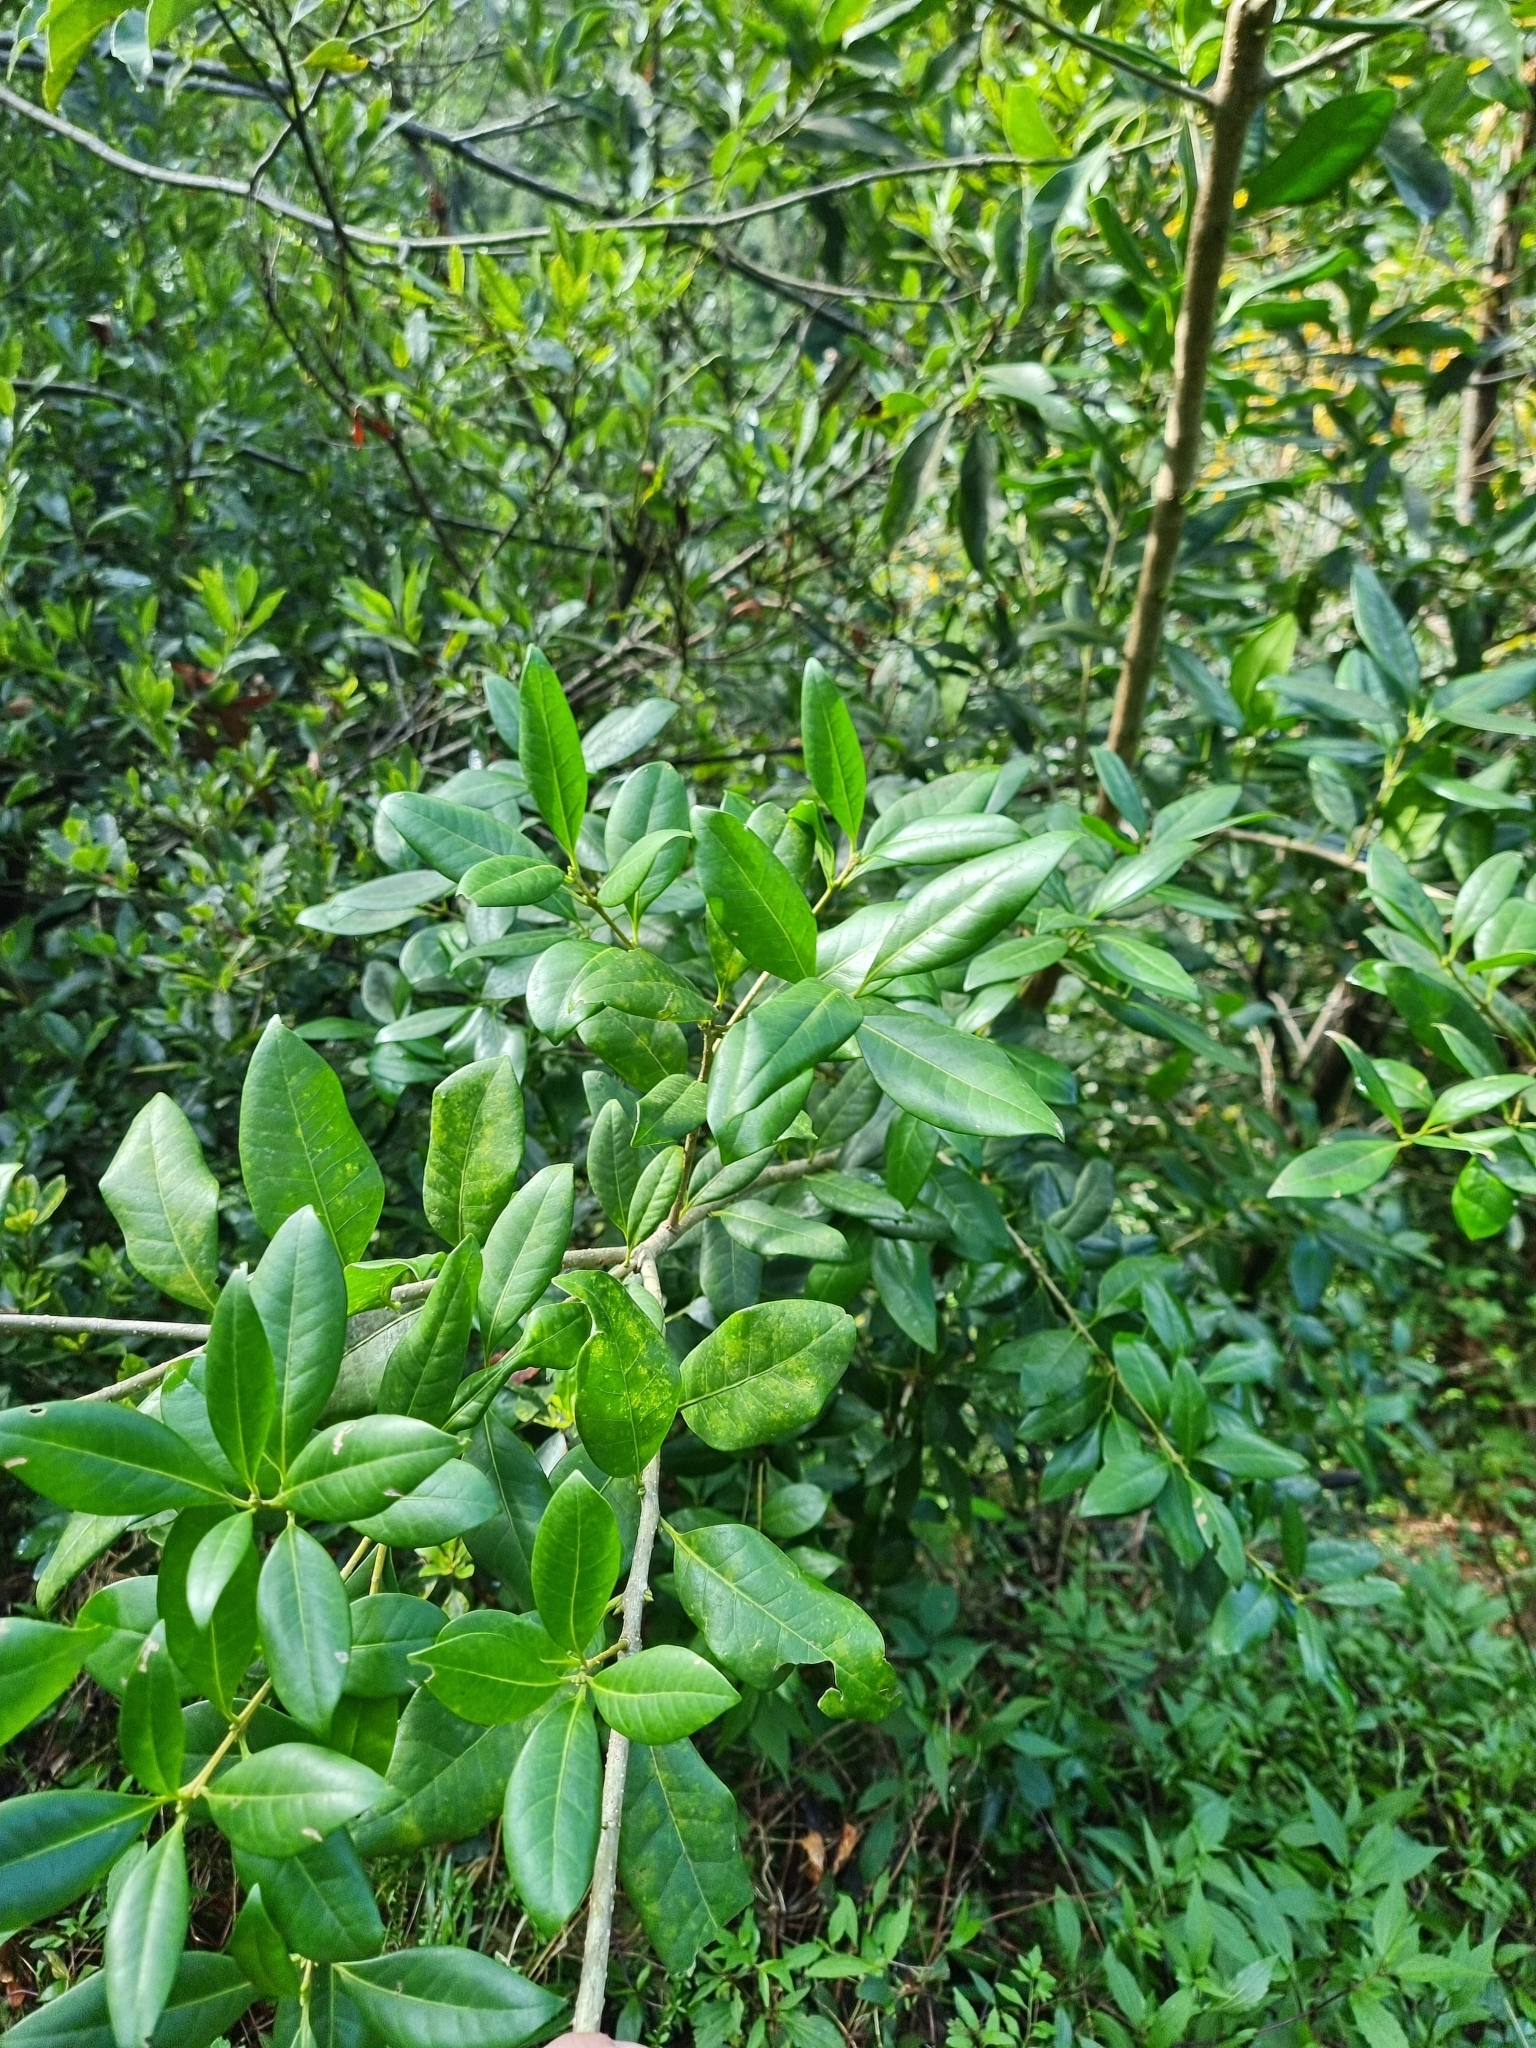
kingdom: Plantae
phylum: Tracheophyta
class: Magnoliopsida
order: Lamiales
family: Oleaceae
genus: Picconia
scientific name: Picconia excelsa
